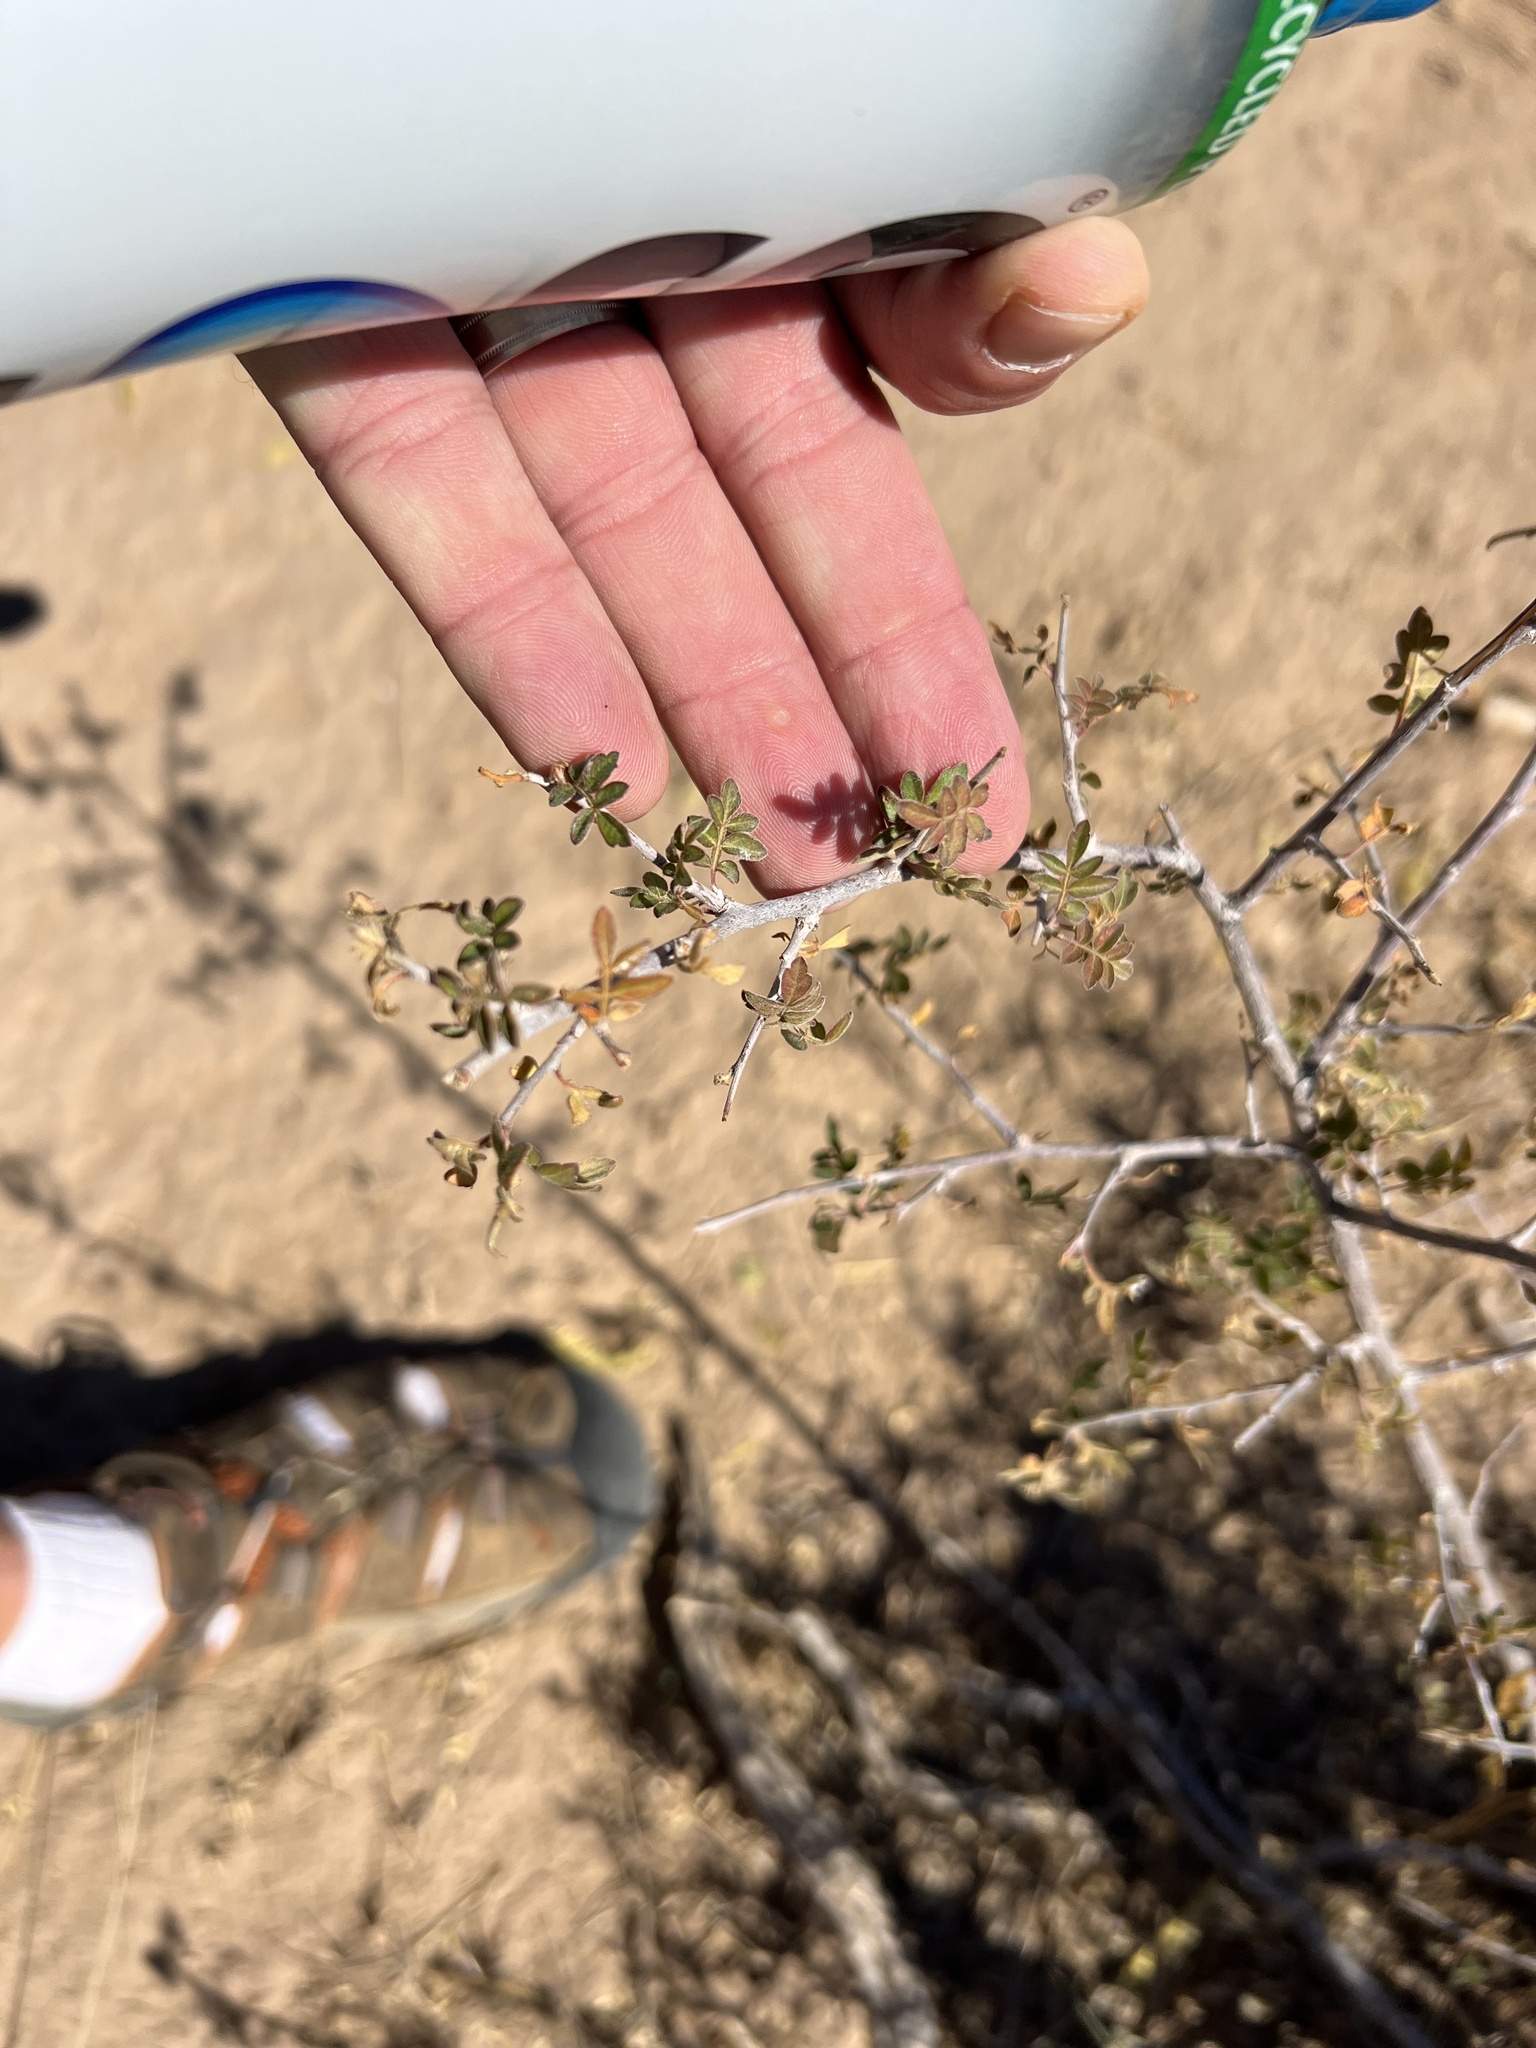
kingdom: Plantae
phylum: Tracheophyta
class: Magnoliopsida
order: Sapindales
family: Anacardiaceae
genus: Rhus
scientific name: Rhus microphylla
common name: Desert sumac
